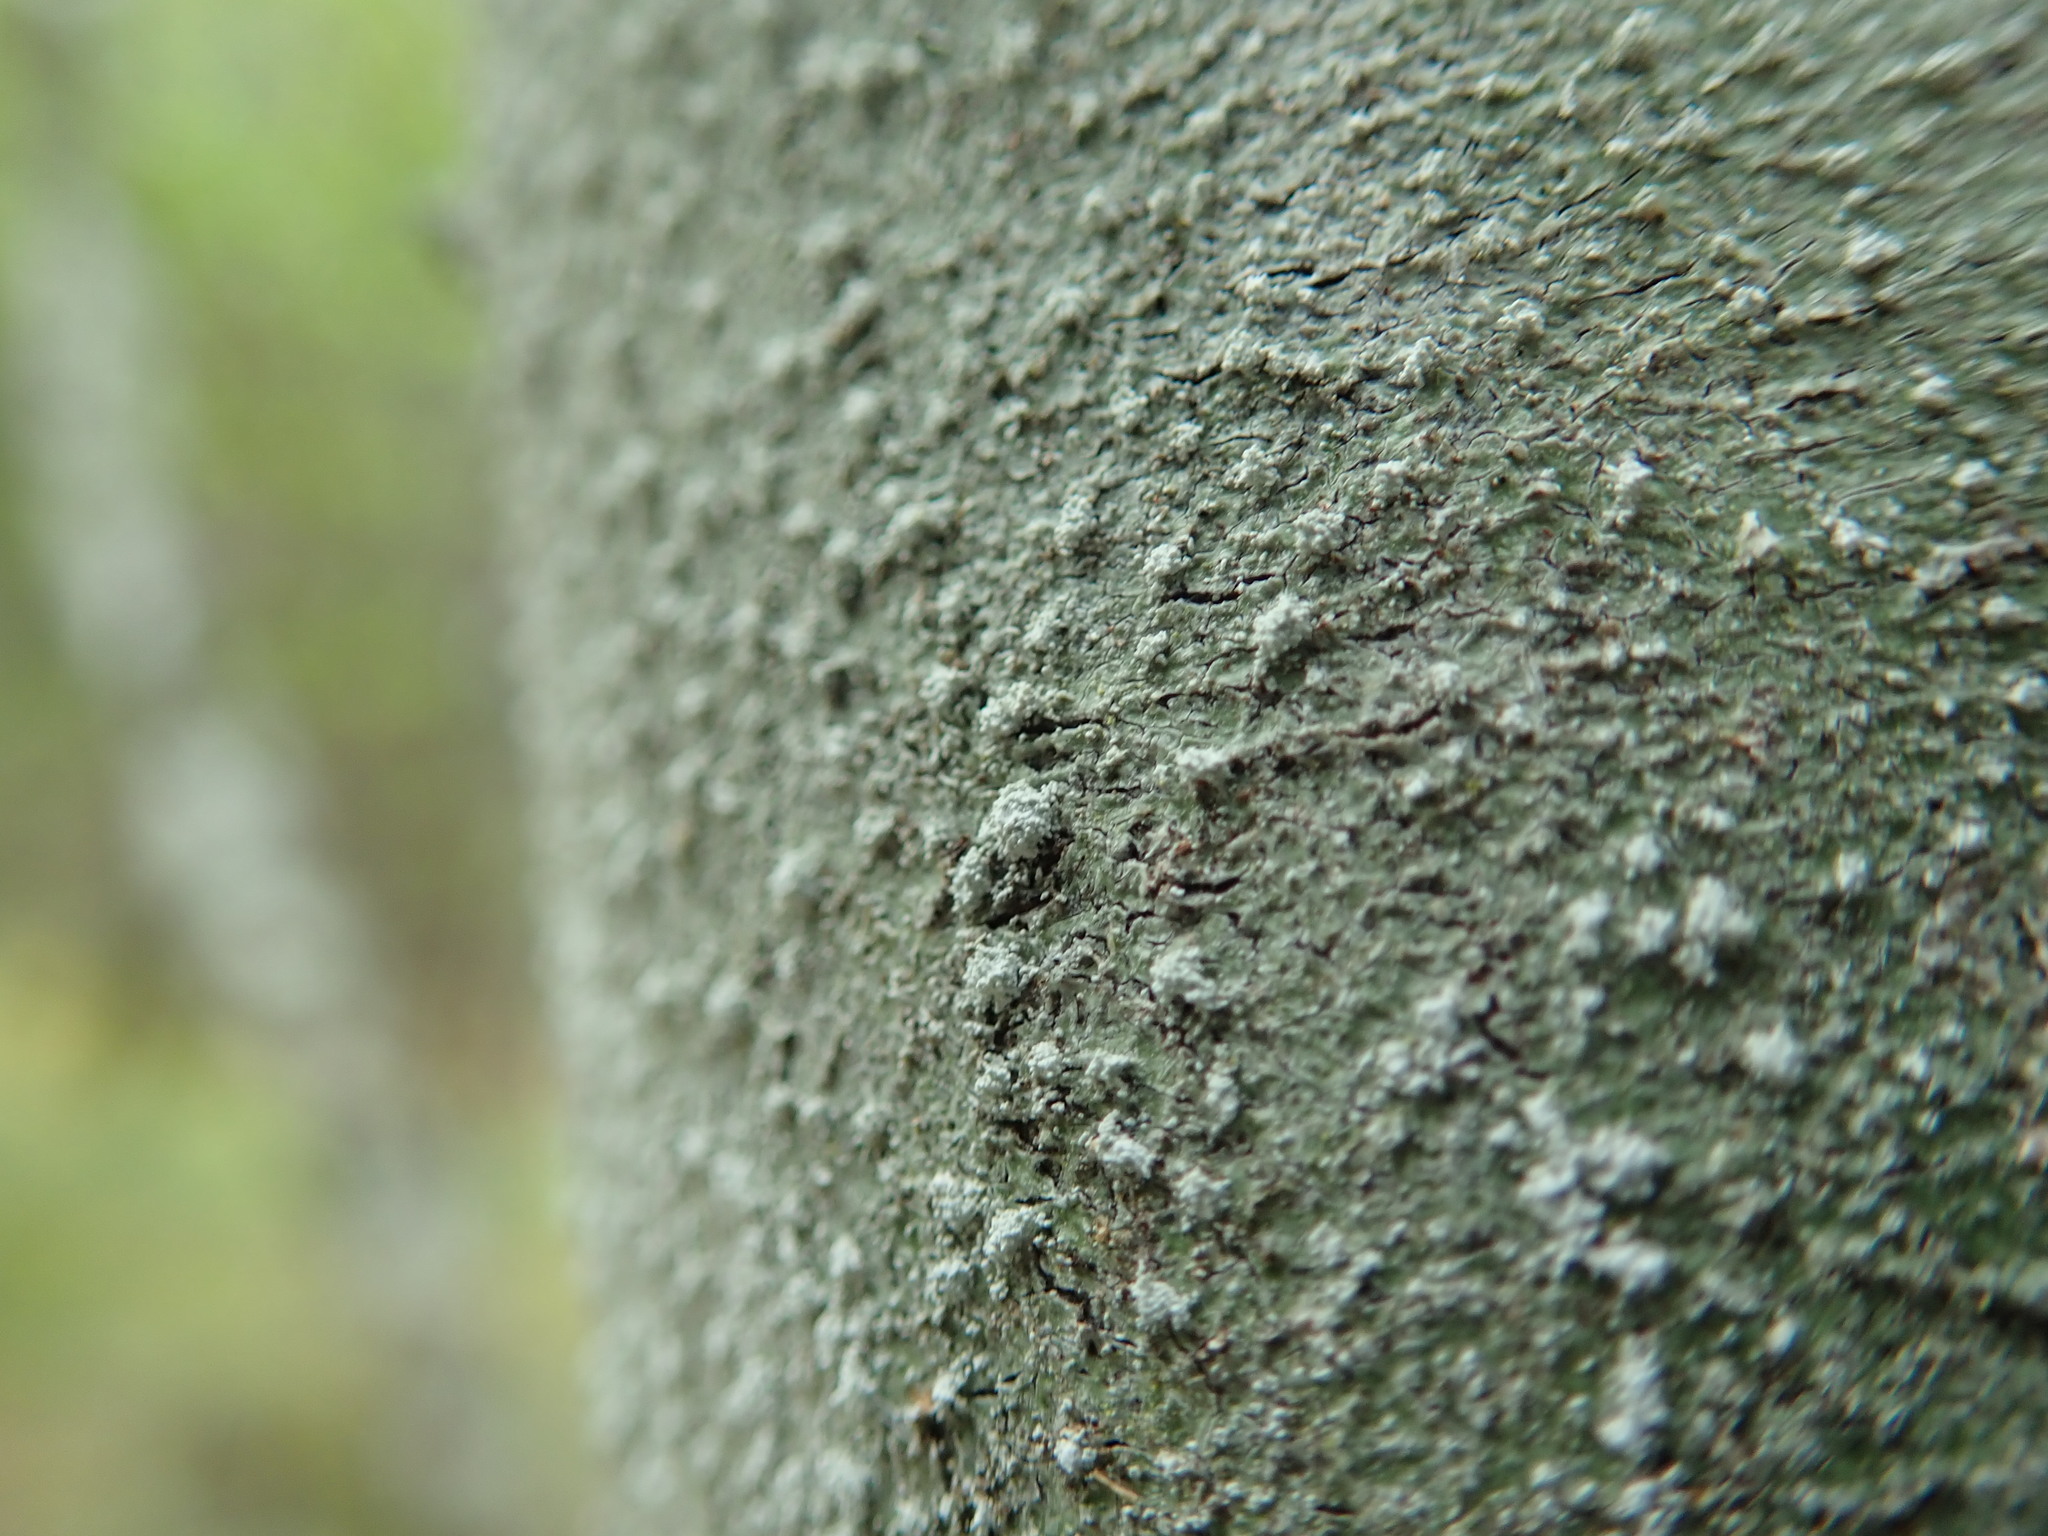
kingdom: Fungi
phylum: Ascomycota
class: Lecanoromycetes
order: Pertusariales
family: Pertusariaceae
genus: Lepra
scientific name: Lepra amara
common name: Bitter wart lichen
